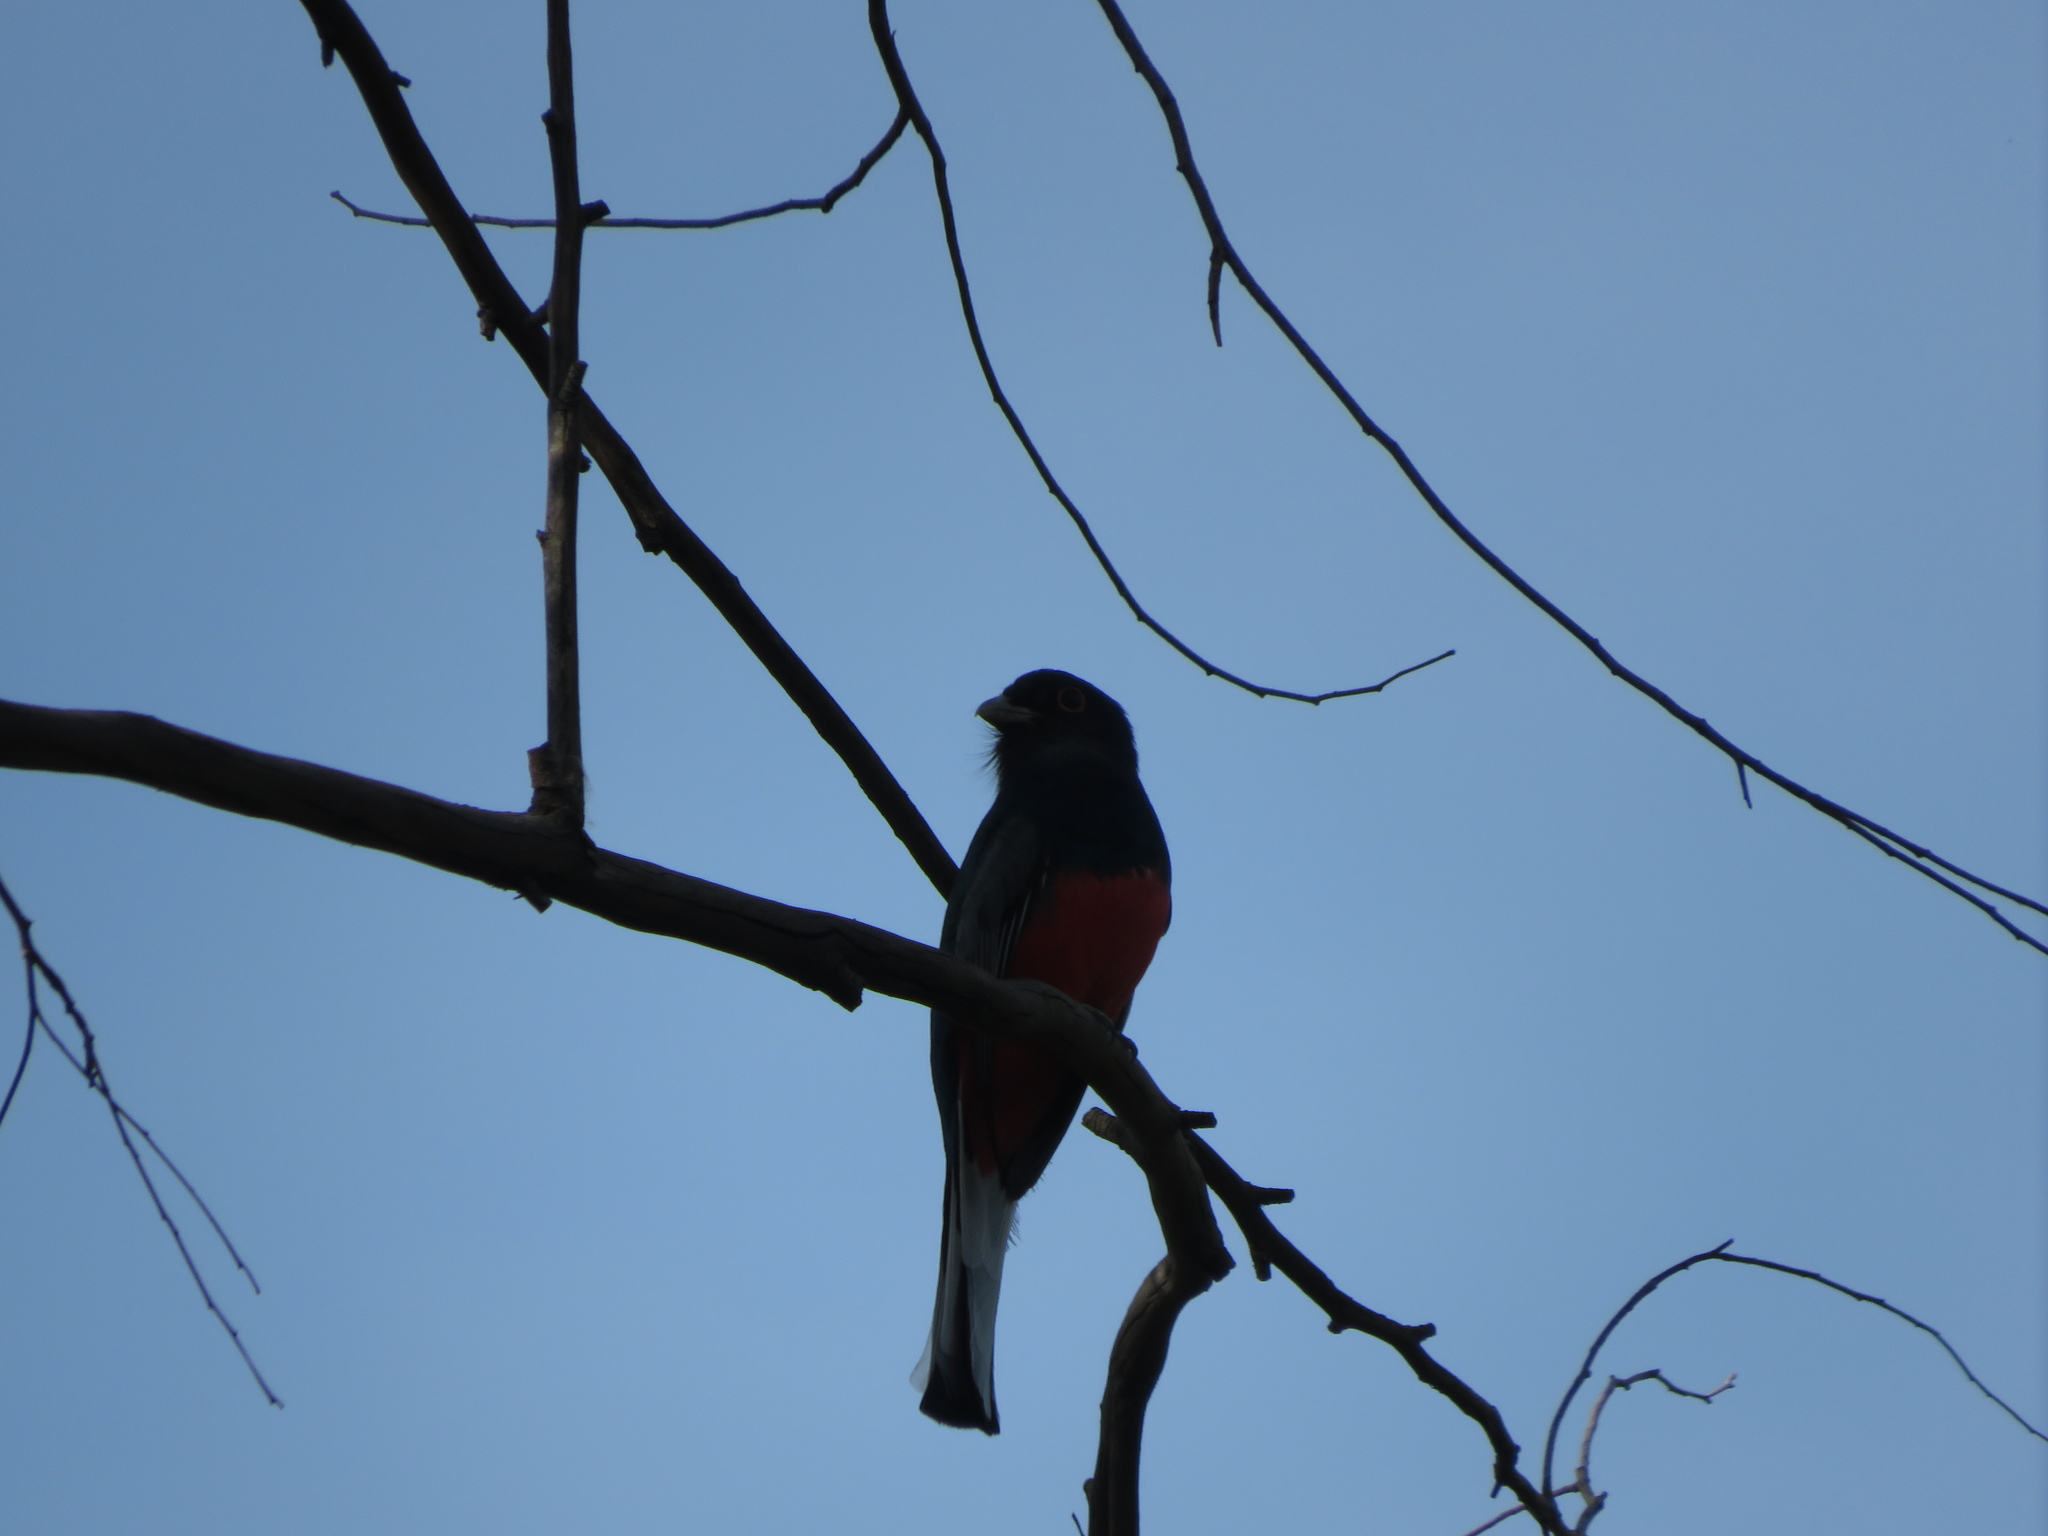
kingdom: Animalia
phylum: Chordata
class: Aves
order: Trogoniformes
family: Trogonidae
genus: Trogon
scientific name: Trogon surrucura
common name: Surucua trogon
